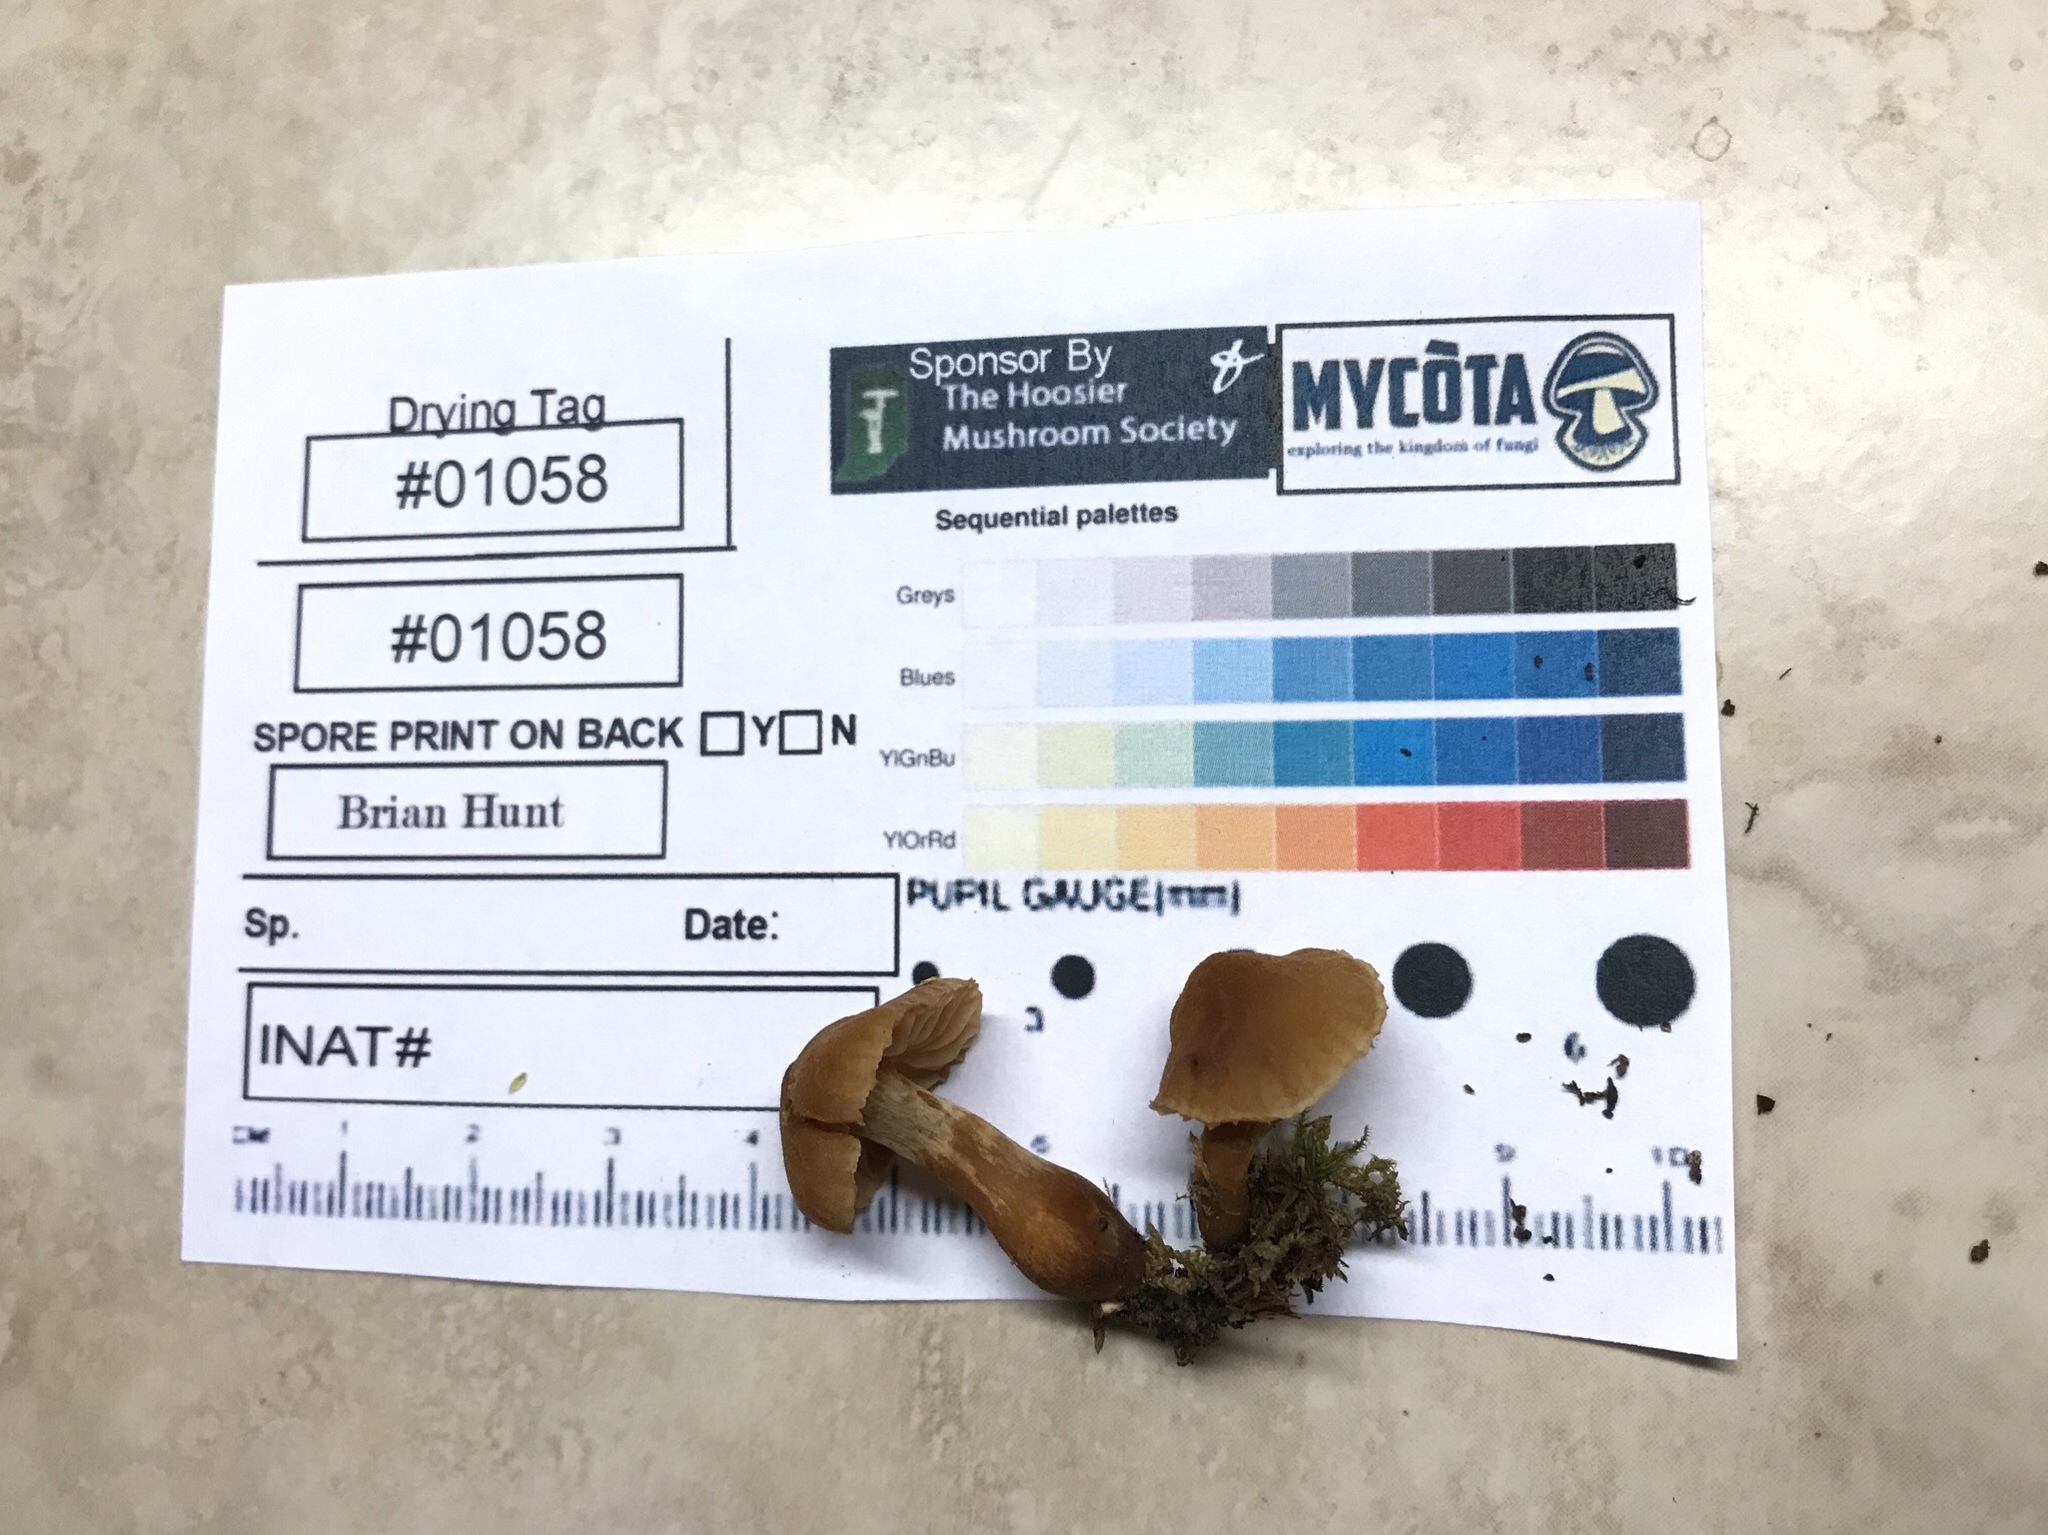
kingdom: Fungi
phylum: Basidiomycota
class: Agaricomycetes
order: Agaricales
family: Cortinariaceae
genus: Cortinarius
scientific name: Cortinarius
